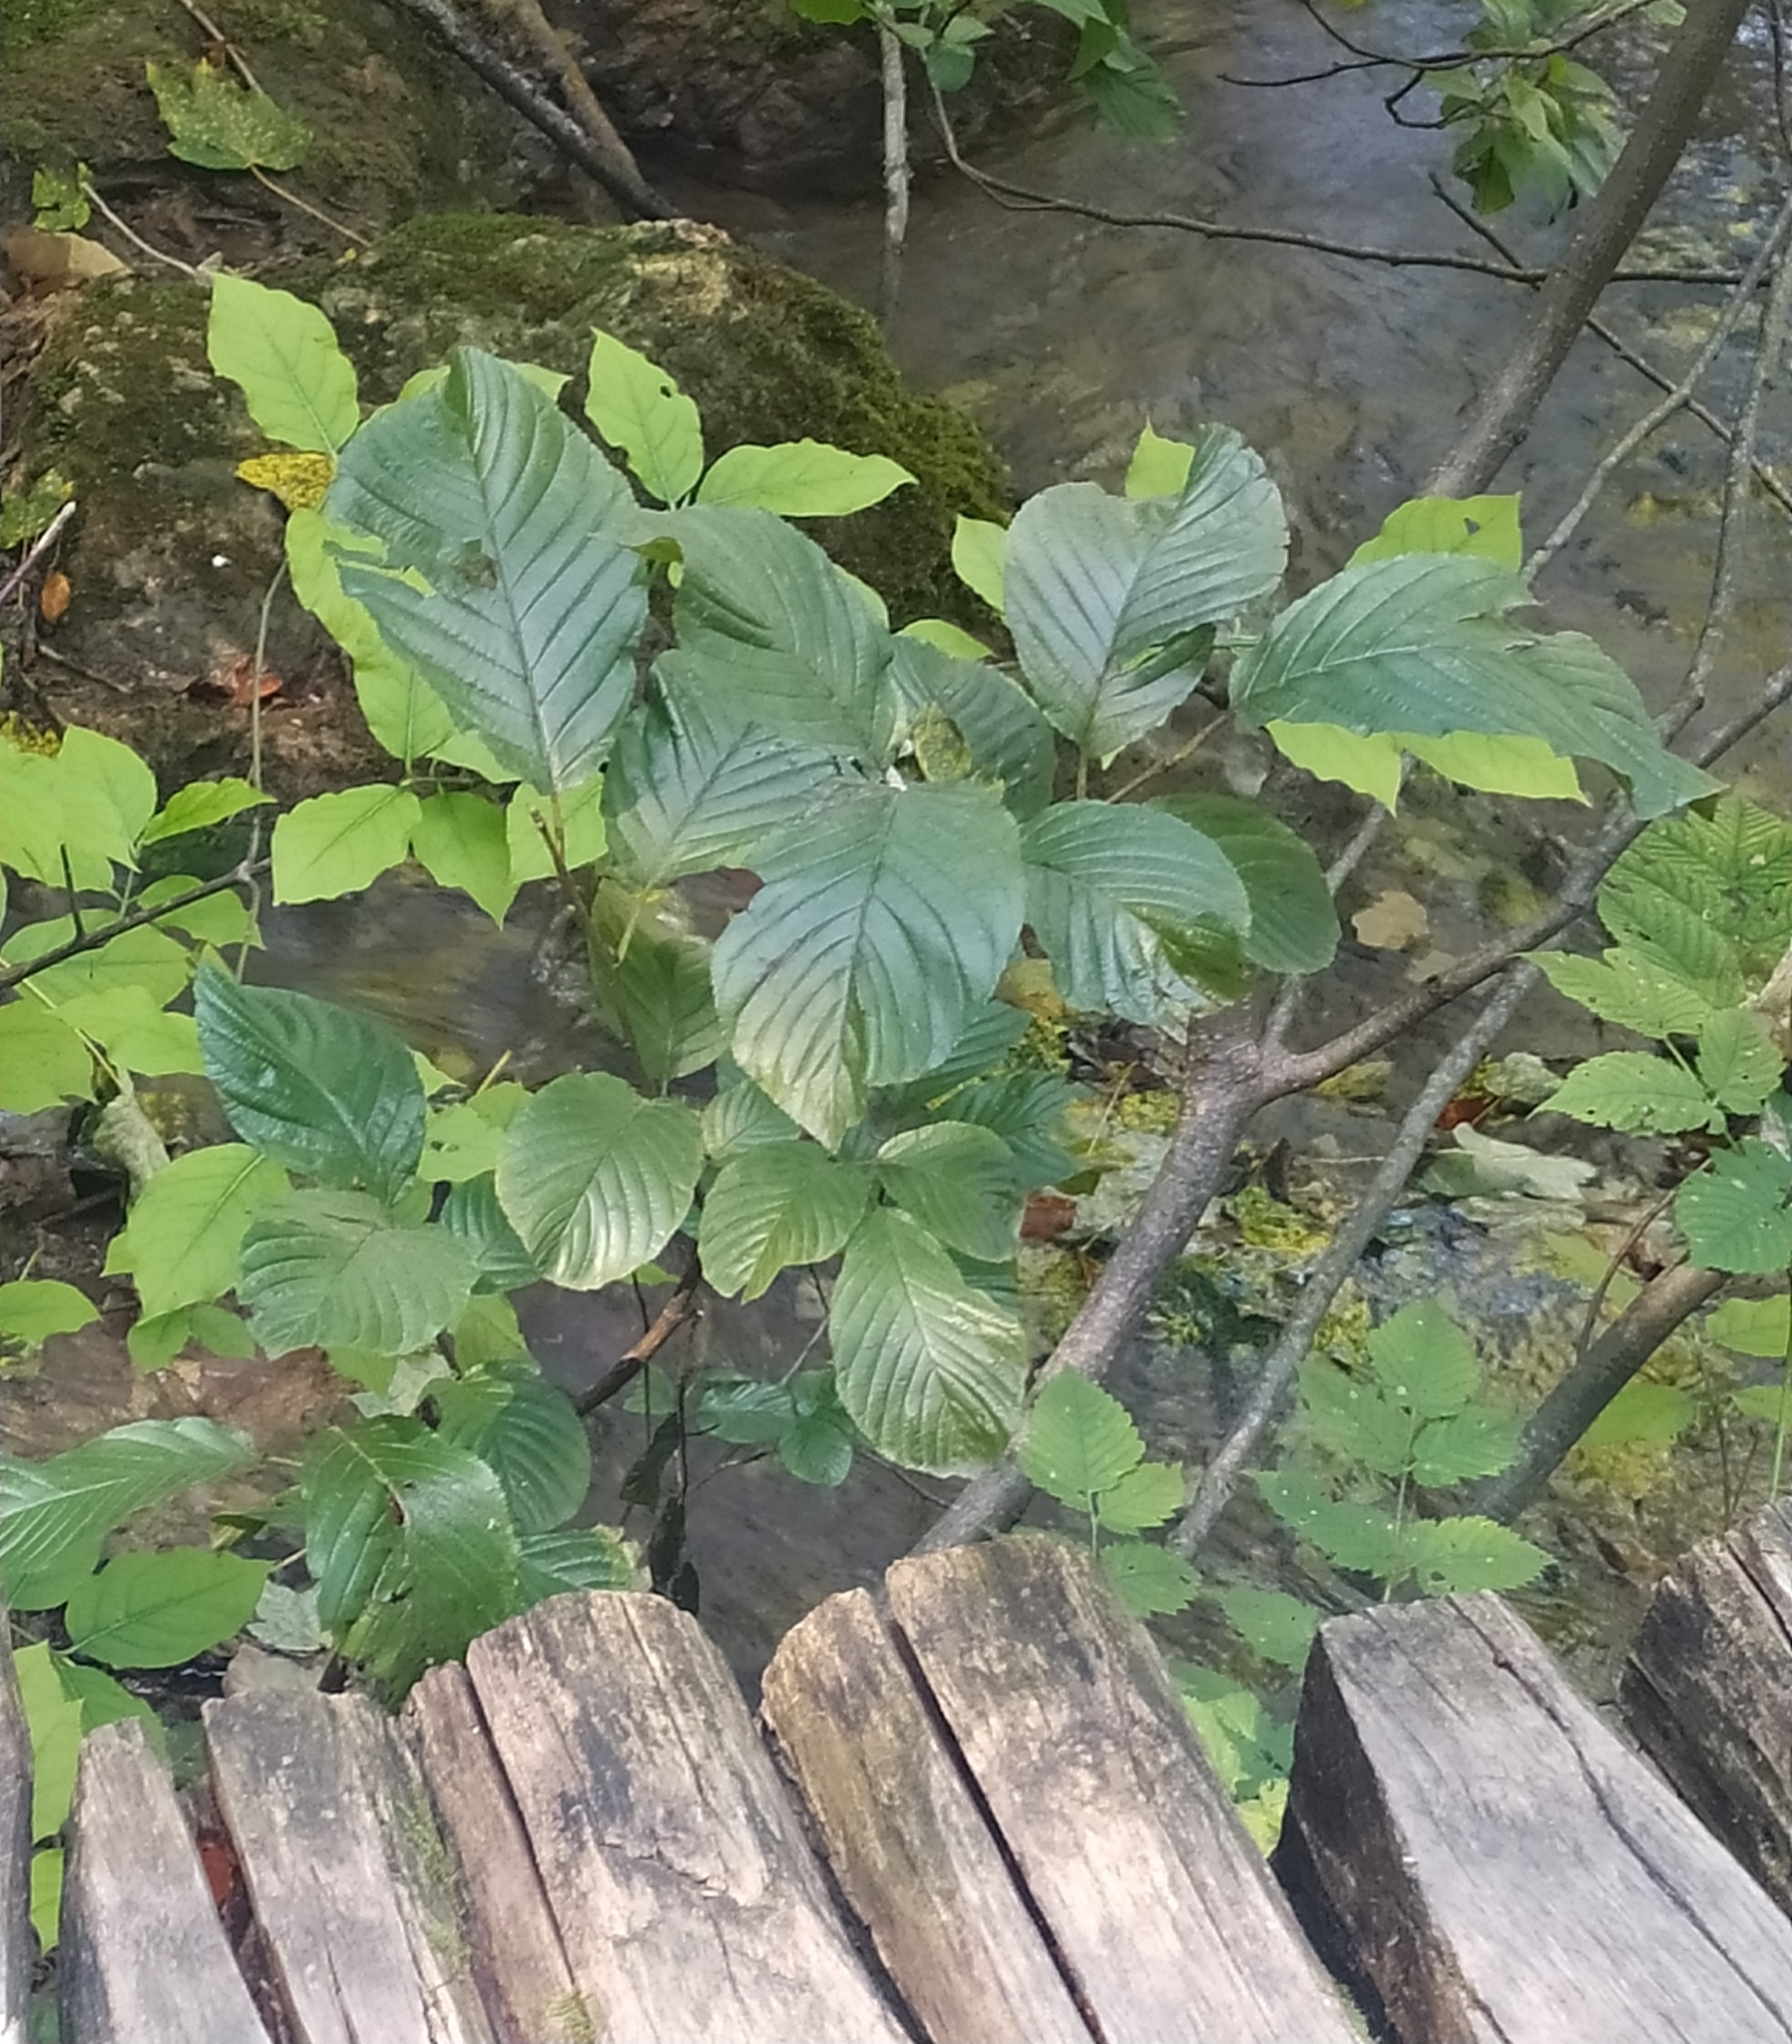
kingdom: Plantae
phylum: Tracheophyta
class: Magnoliopsida
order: Rosales
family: Rhamnaceae
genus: Atadinus
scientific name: Atadinus fallax
